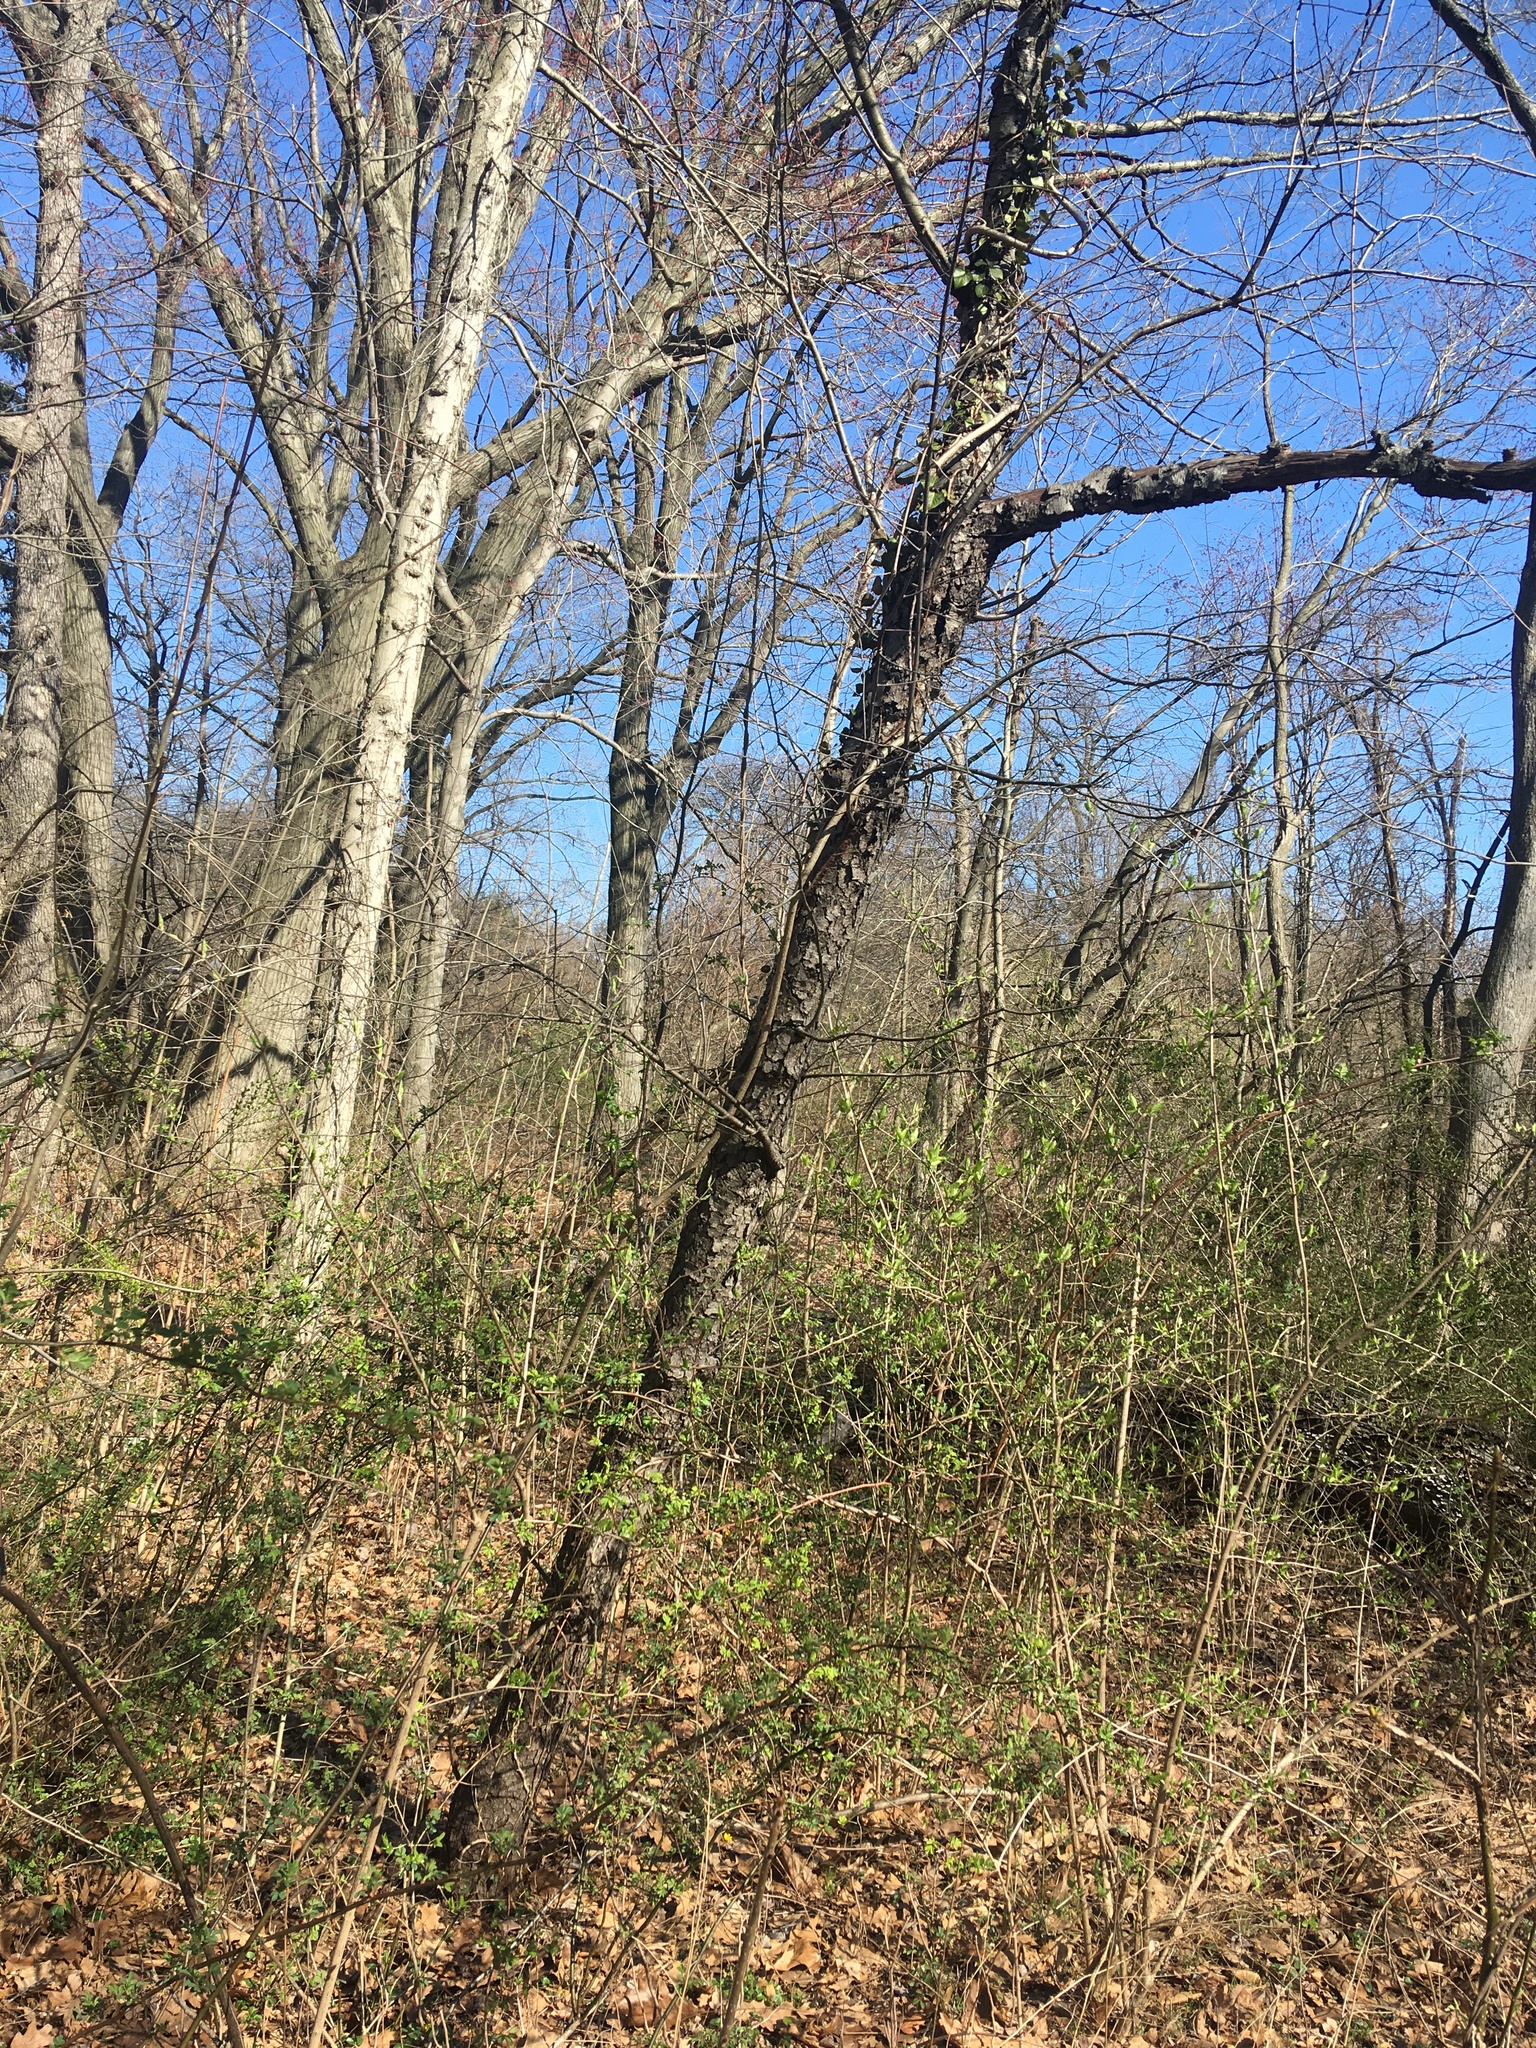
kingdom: Plantae
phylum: Tracheophyta
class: Magnoliopsida
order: Rosales
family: Rosaceae
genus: Prunus
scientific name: Prunus serotina
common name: Black cherry
